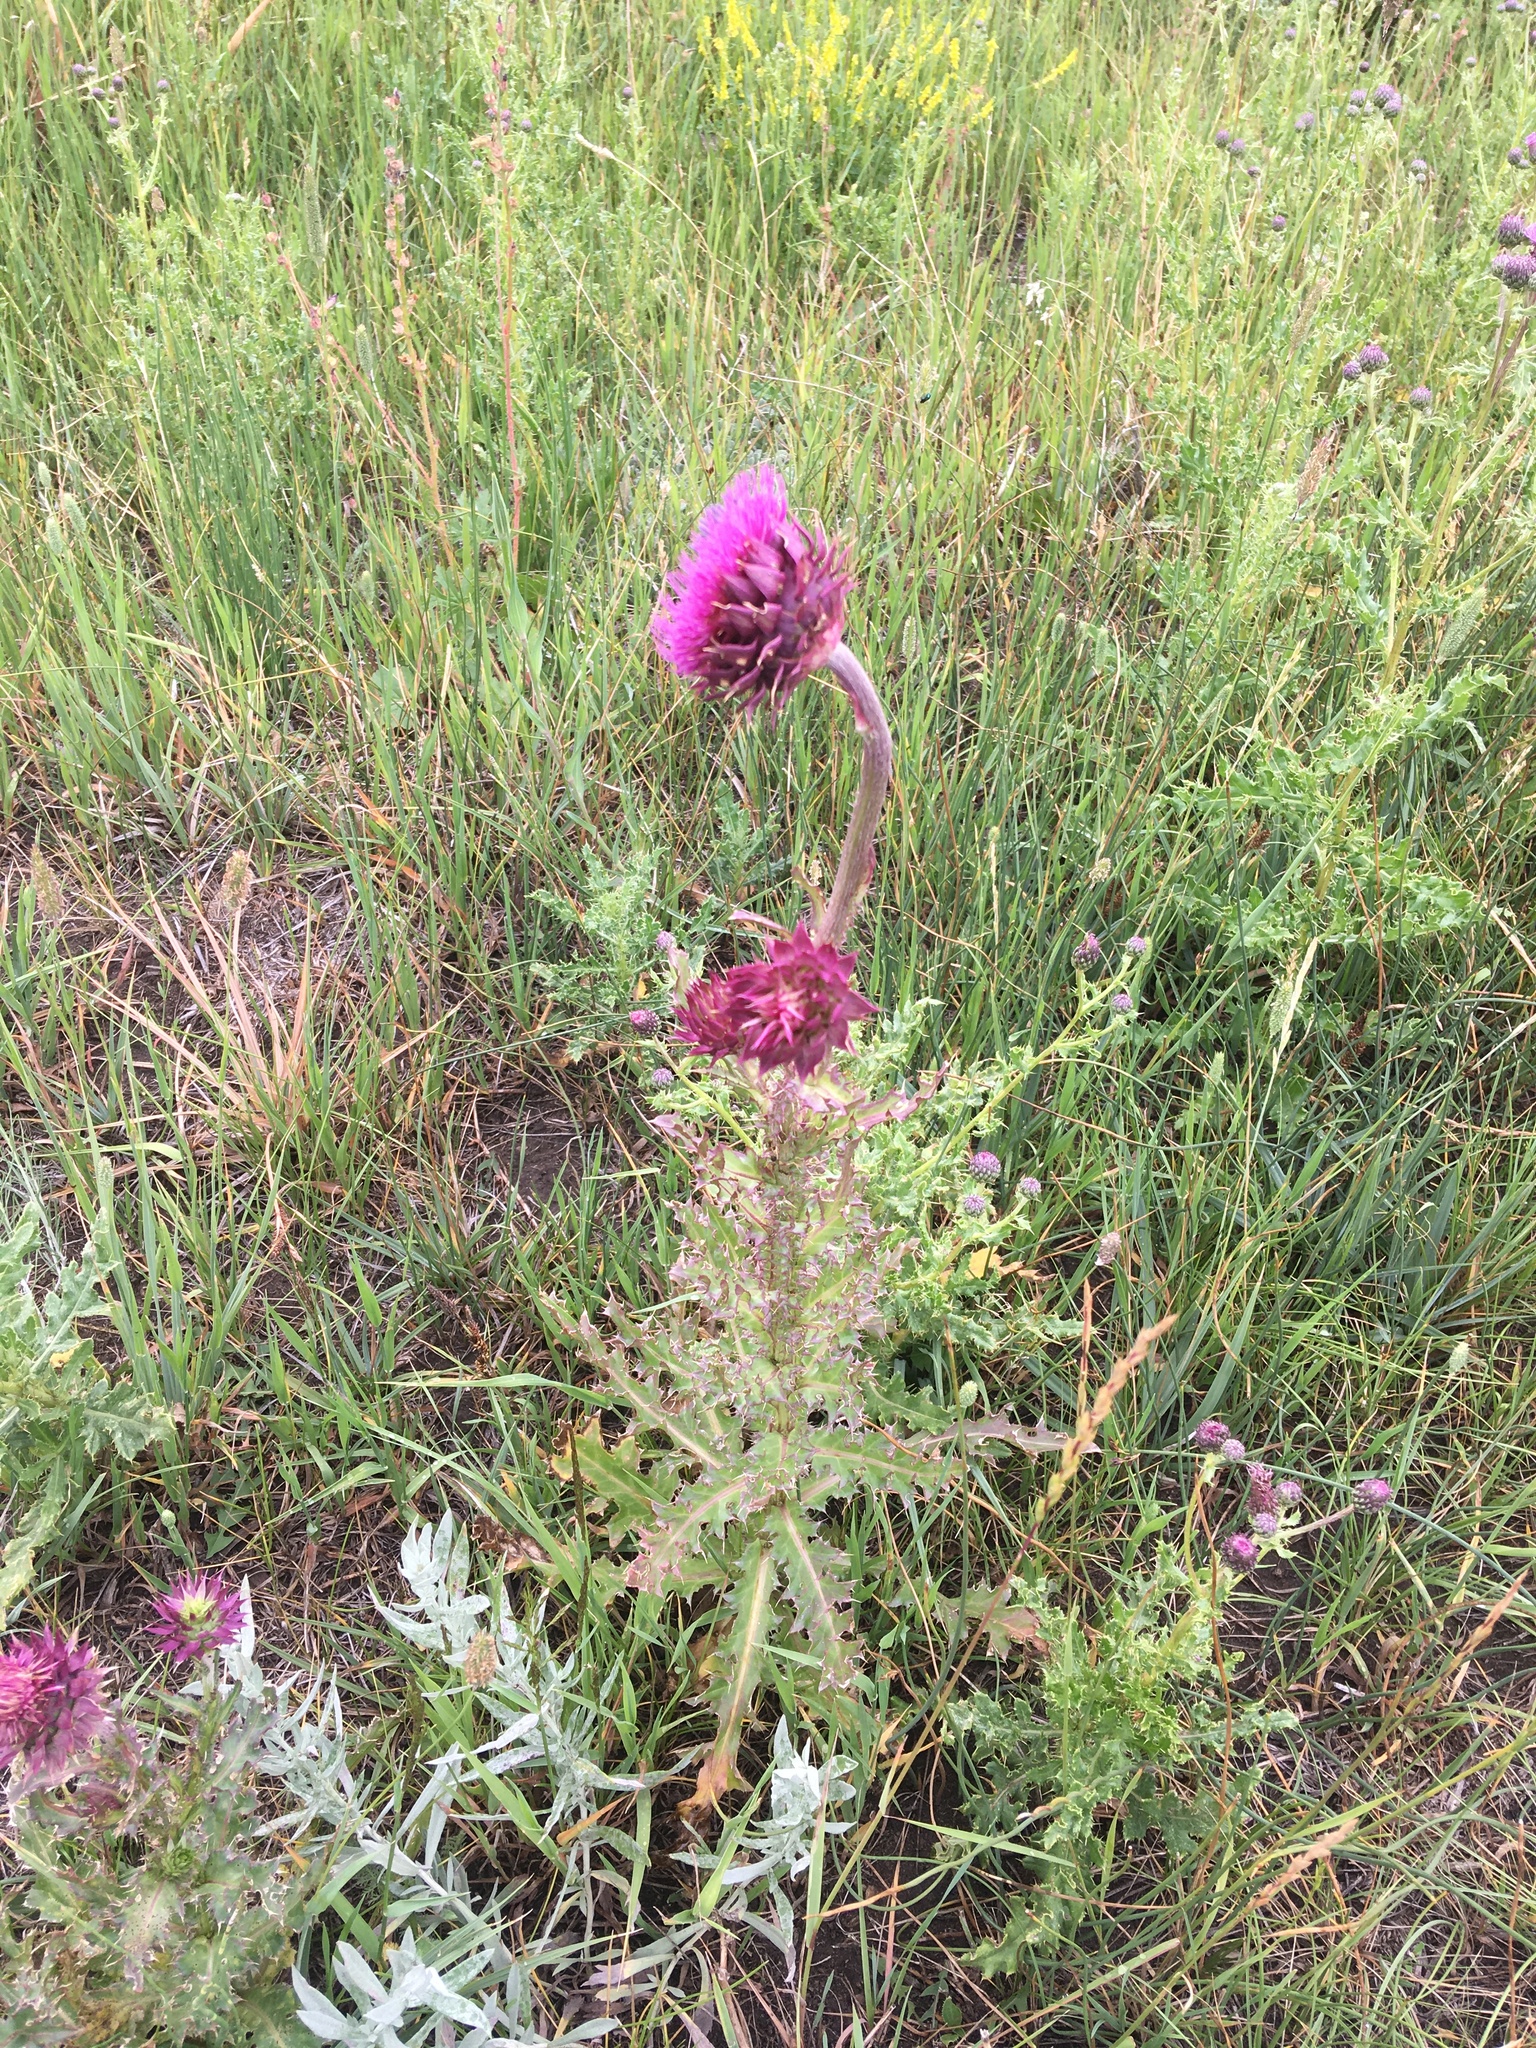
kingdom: Plantae
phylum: Tracheophyta
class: Magnoliopsida
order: Asterales
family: Asteraceae
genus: Carduus
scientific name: Carduus nutans
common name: Musk thistle
